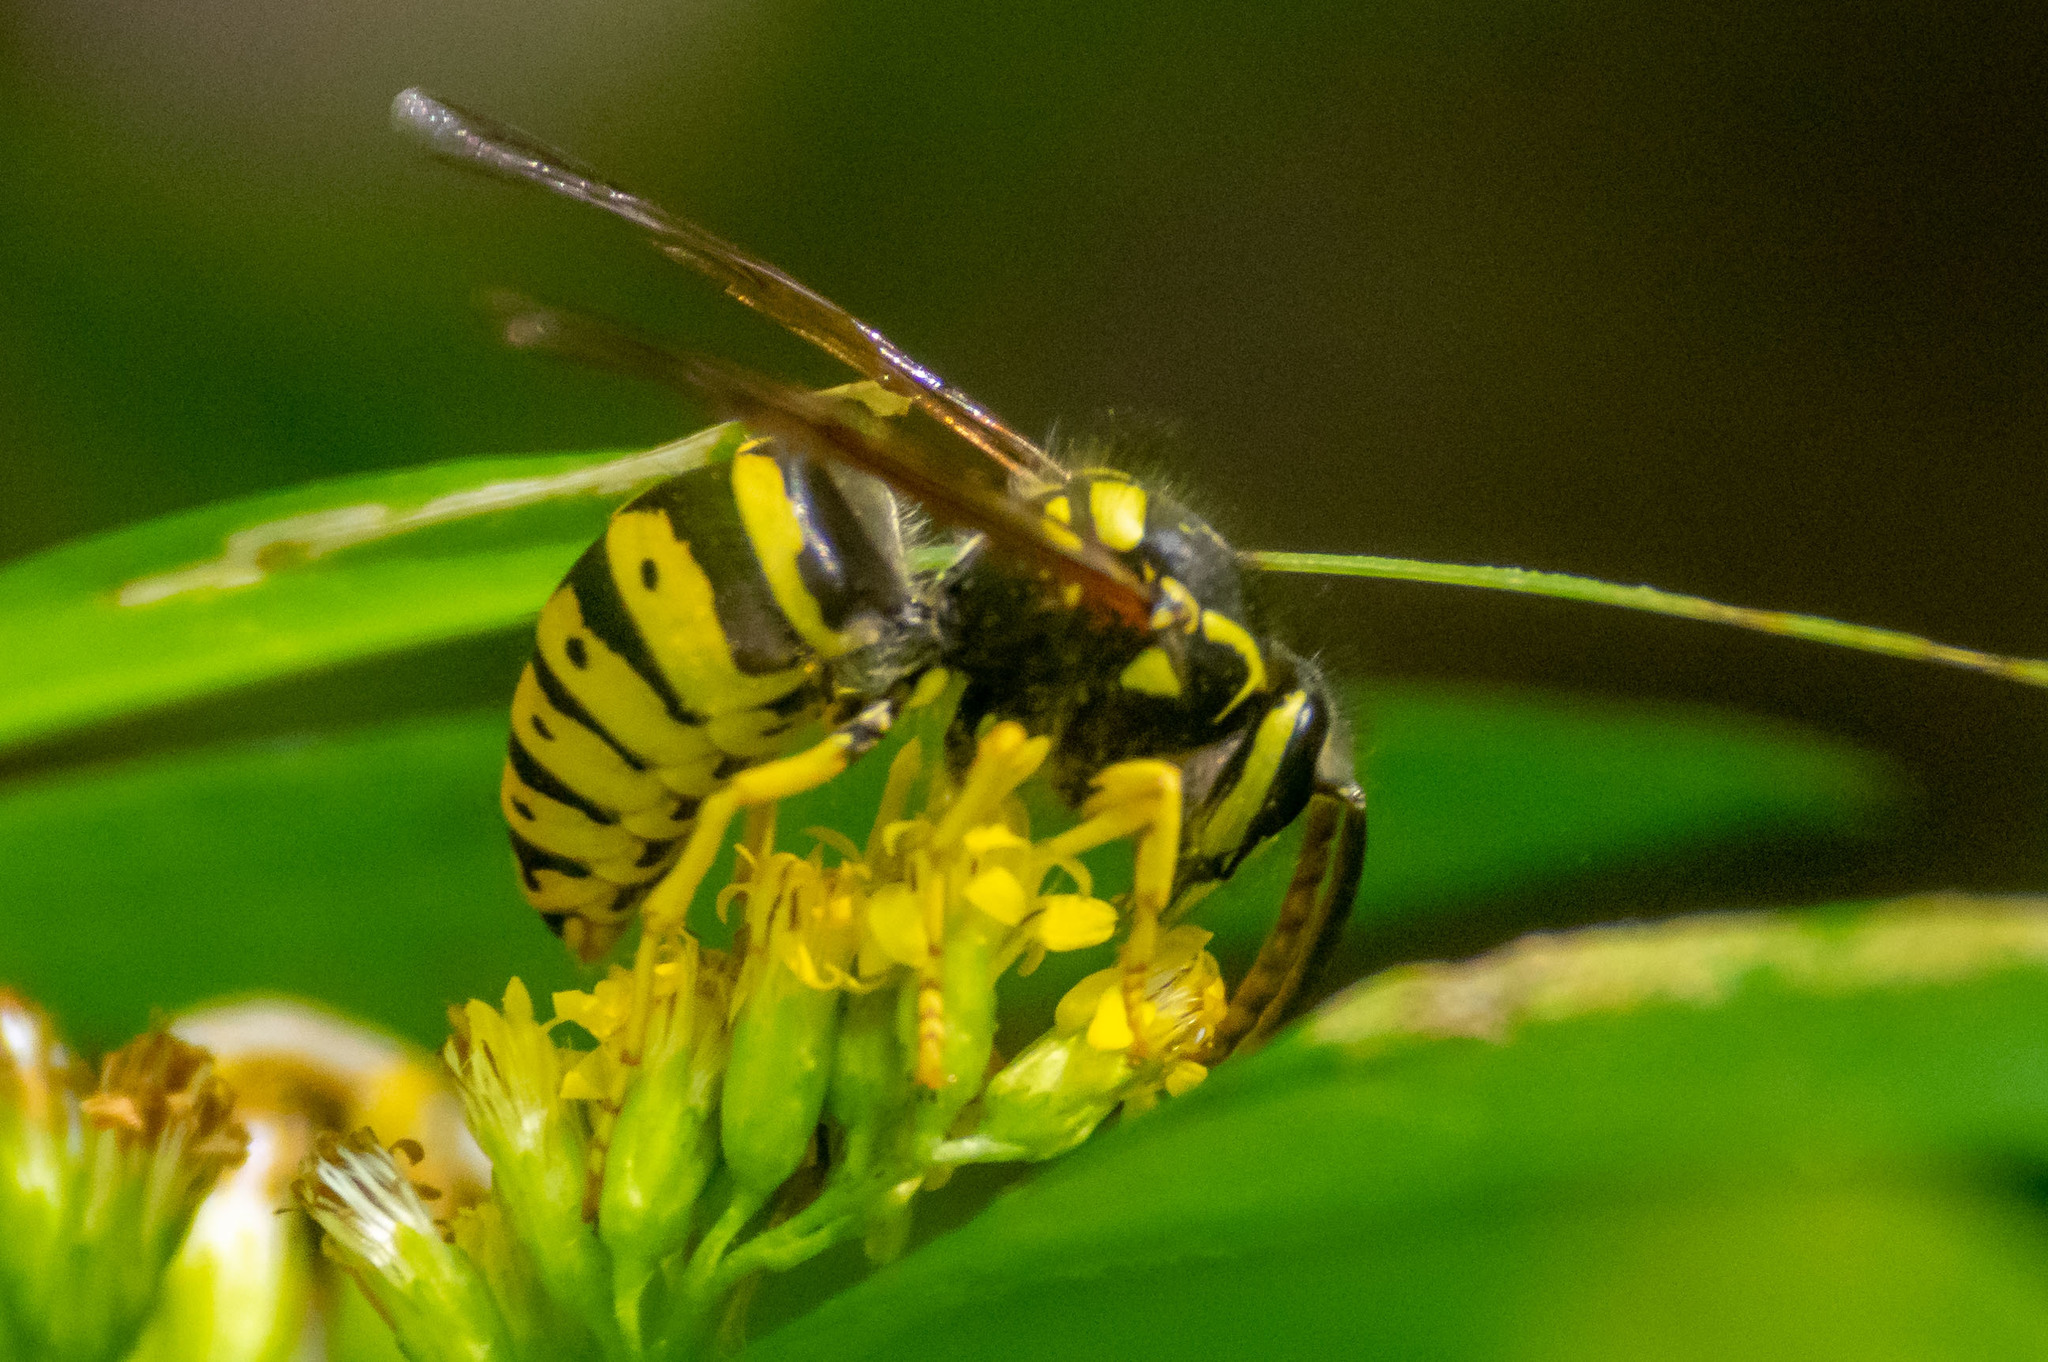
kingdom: Animalia
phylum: Arthropoda
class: Insecta
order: Hymenoptera
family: Vespidae
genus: Dolichovespula
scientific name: Dolichovespula arenaria
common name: Aerial yellowjacket
